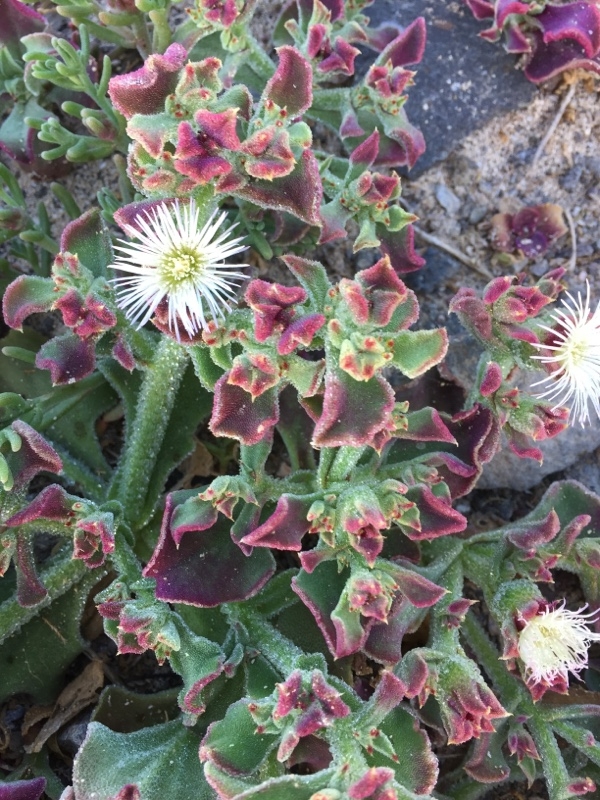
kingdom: Plantae
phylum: Tracheophyta
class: Magnoliopsida
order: Caryophyllales
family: Aizoaceae
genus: Mesembryanthemum
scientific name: Mesembryanthemum crystallinum
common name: Common iceplant
